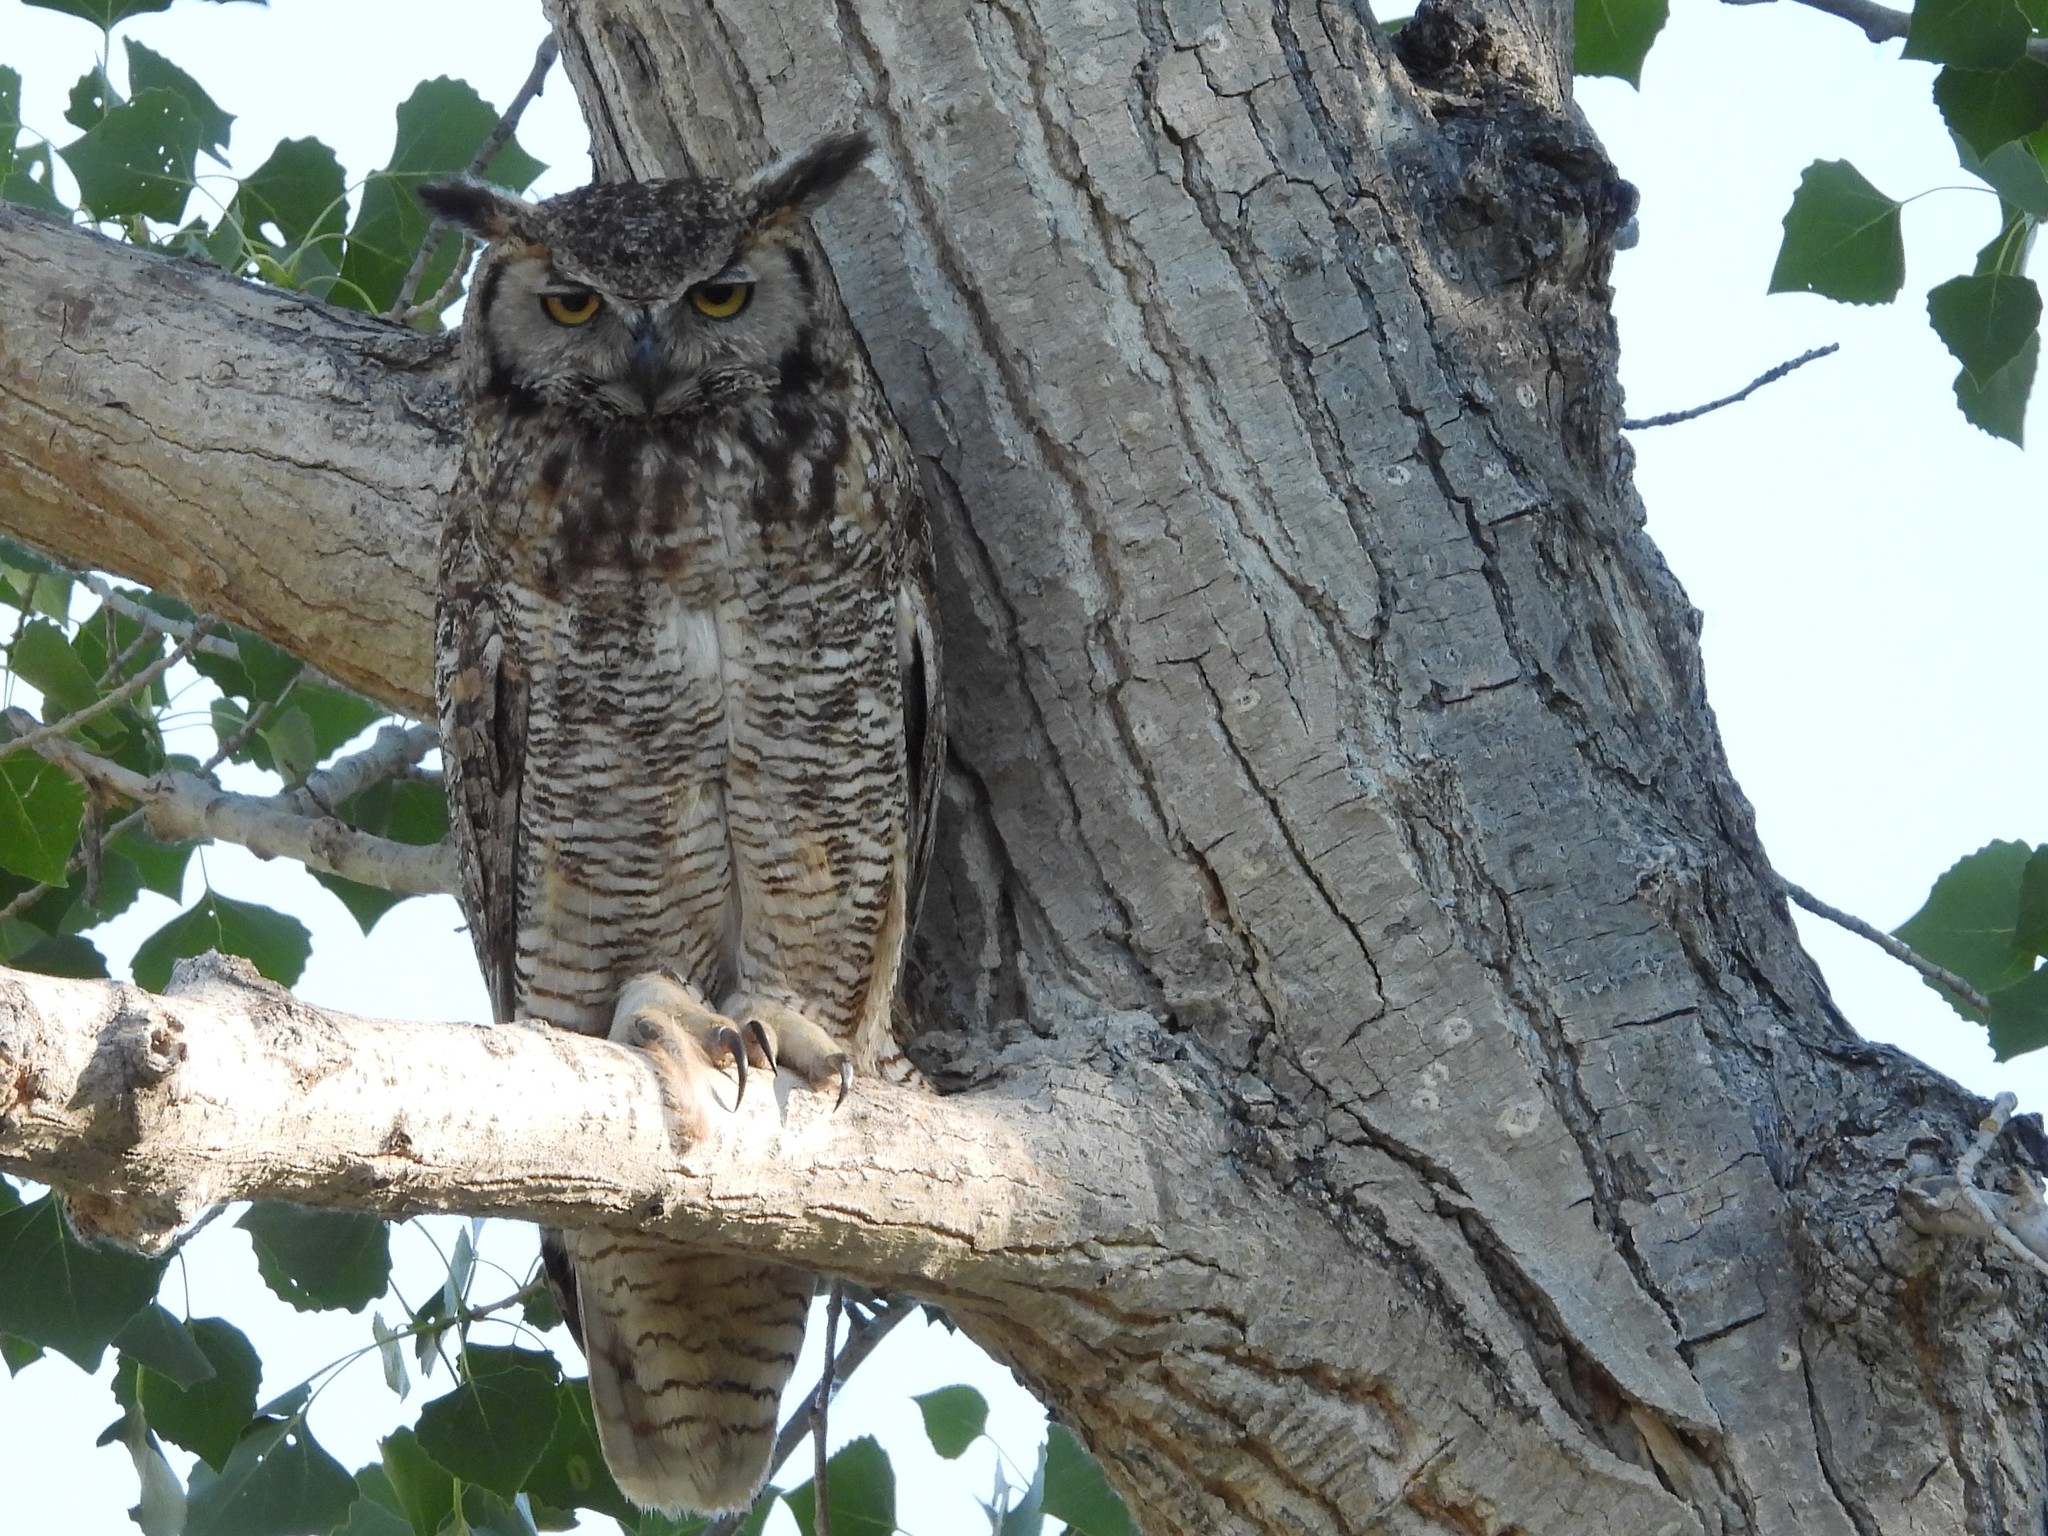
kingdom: Animalia
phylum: Chordata
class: Aves
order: Strigiformes
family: Strigidae
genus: Bubo
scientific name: Bubo virginianus
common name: Great horned owl
